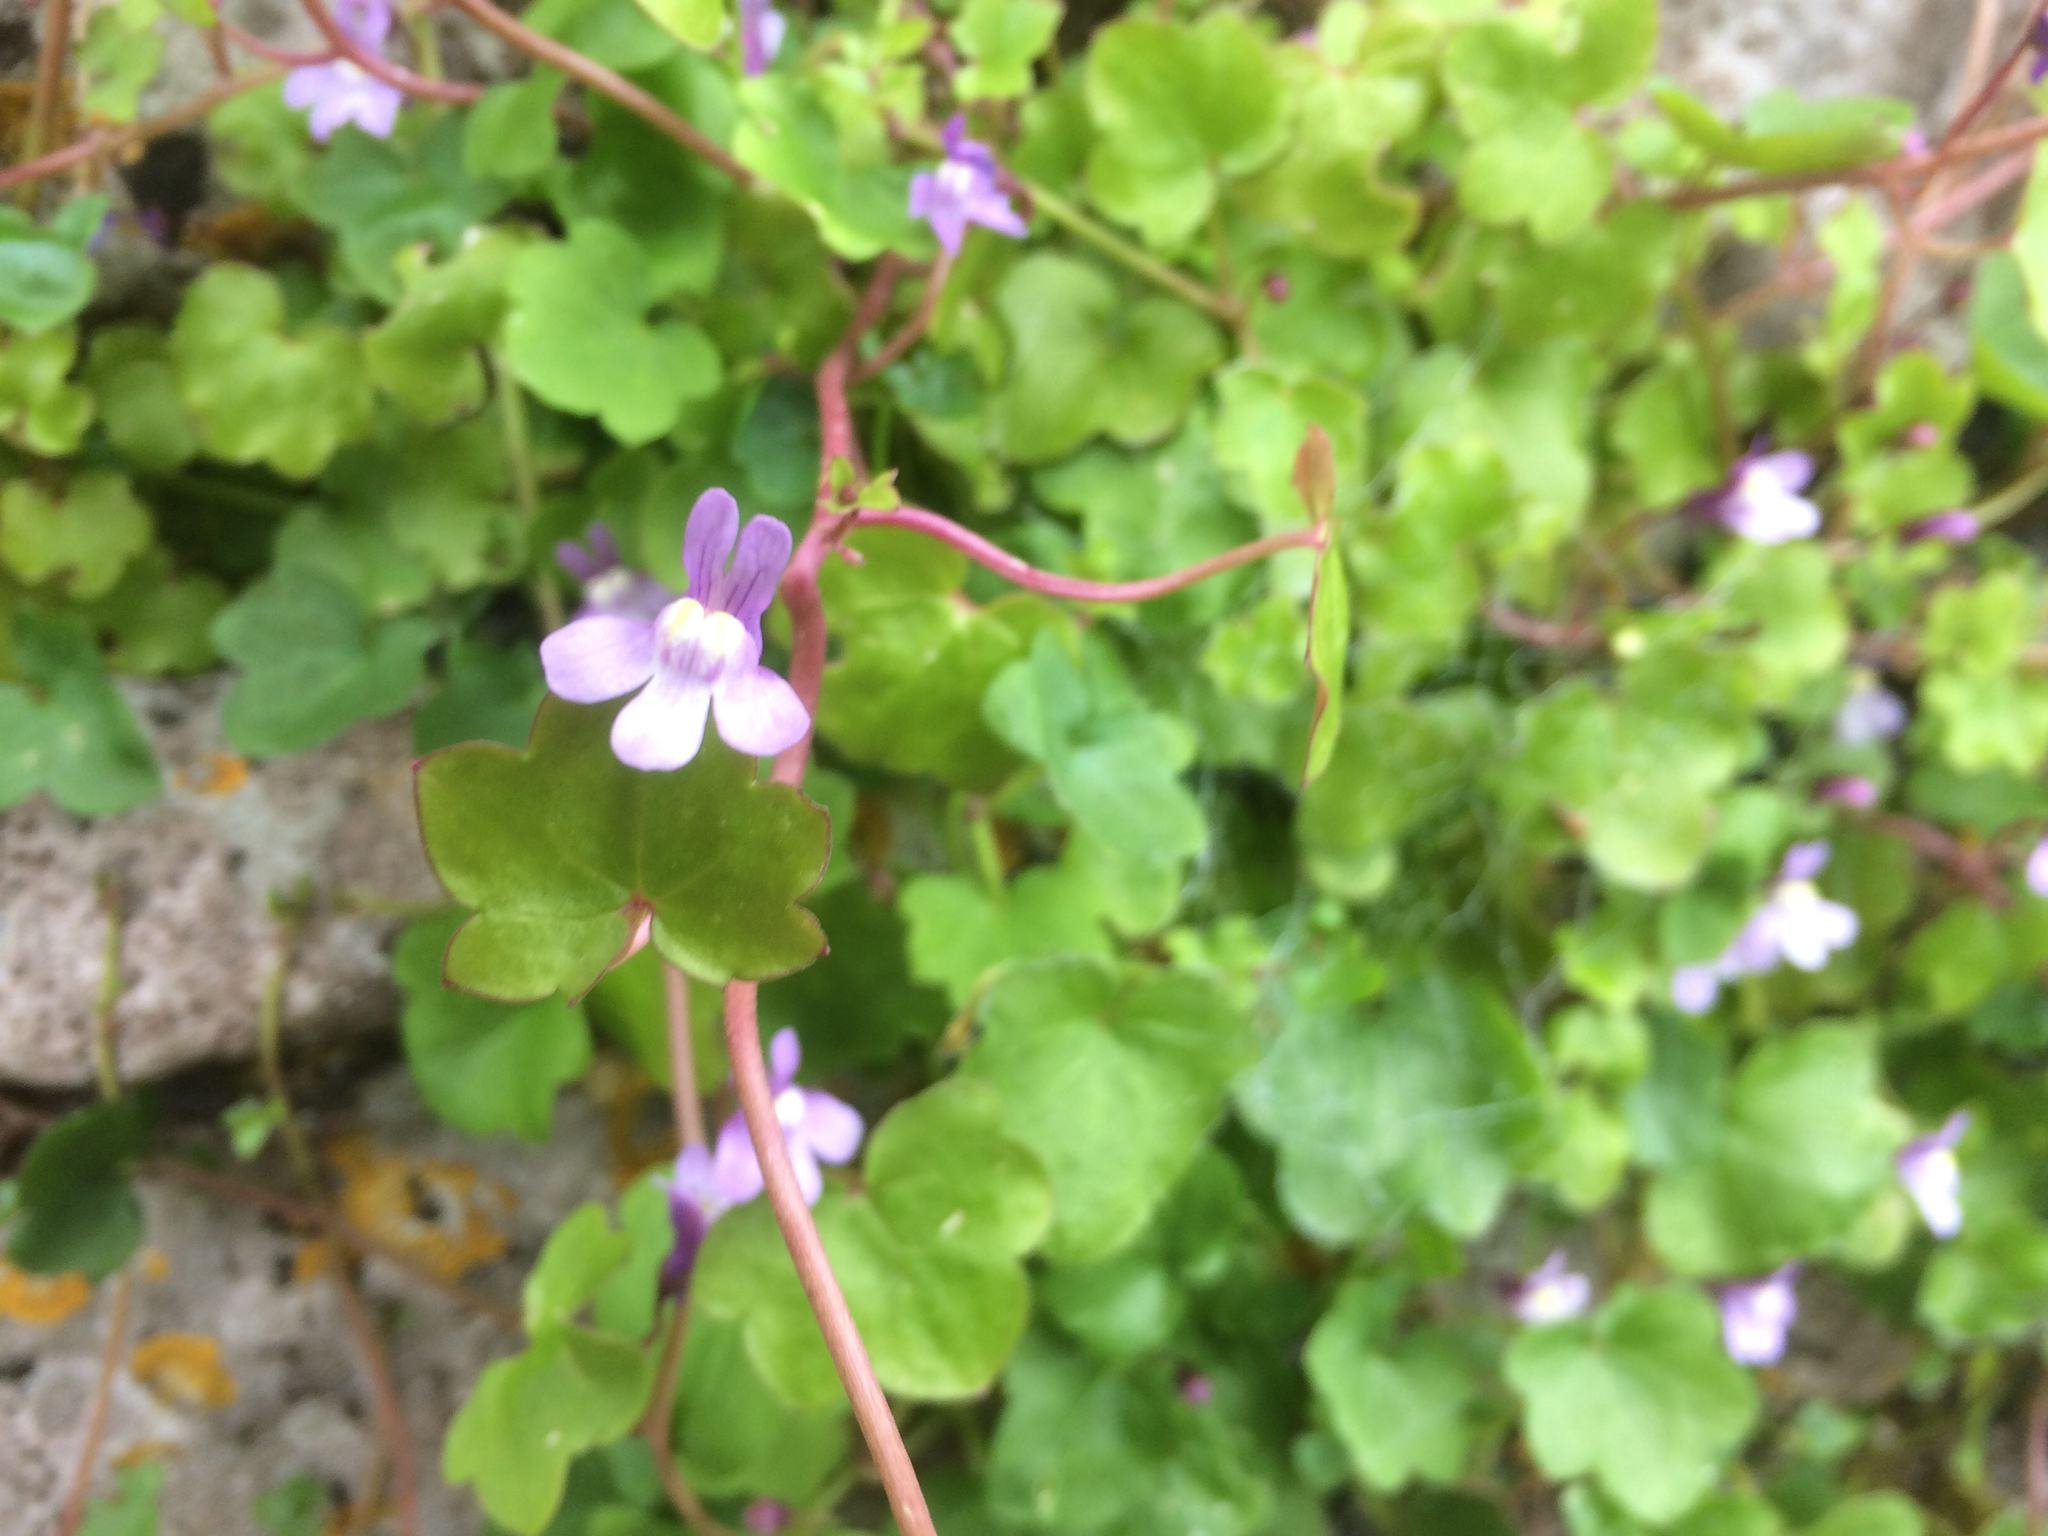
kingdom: Plantae
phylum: Tracheophyta
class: Magnoliopsida
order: Lamiales
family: Plantaginaceae
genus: Cymbalaria
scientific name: Cymbalaria muralis
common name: Ivy-leaved toadflax
